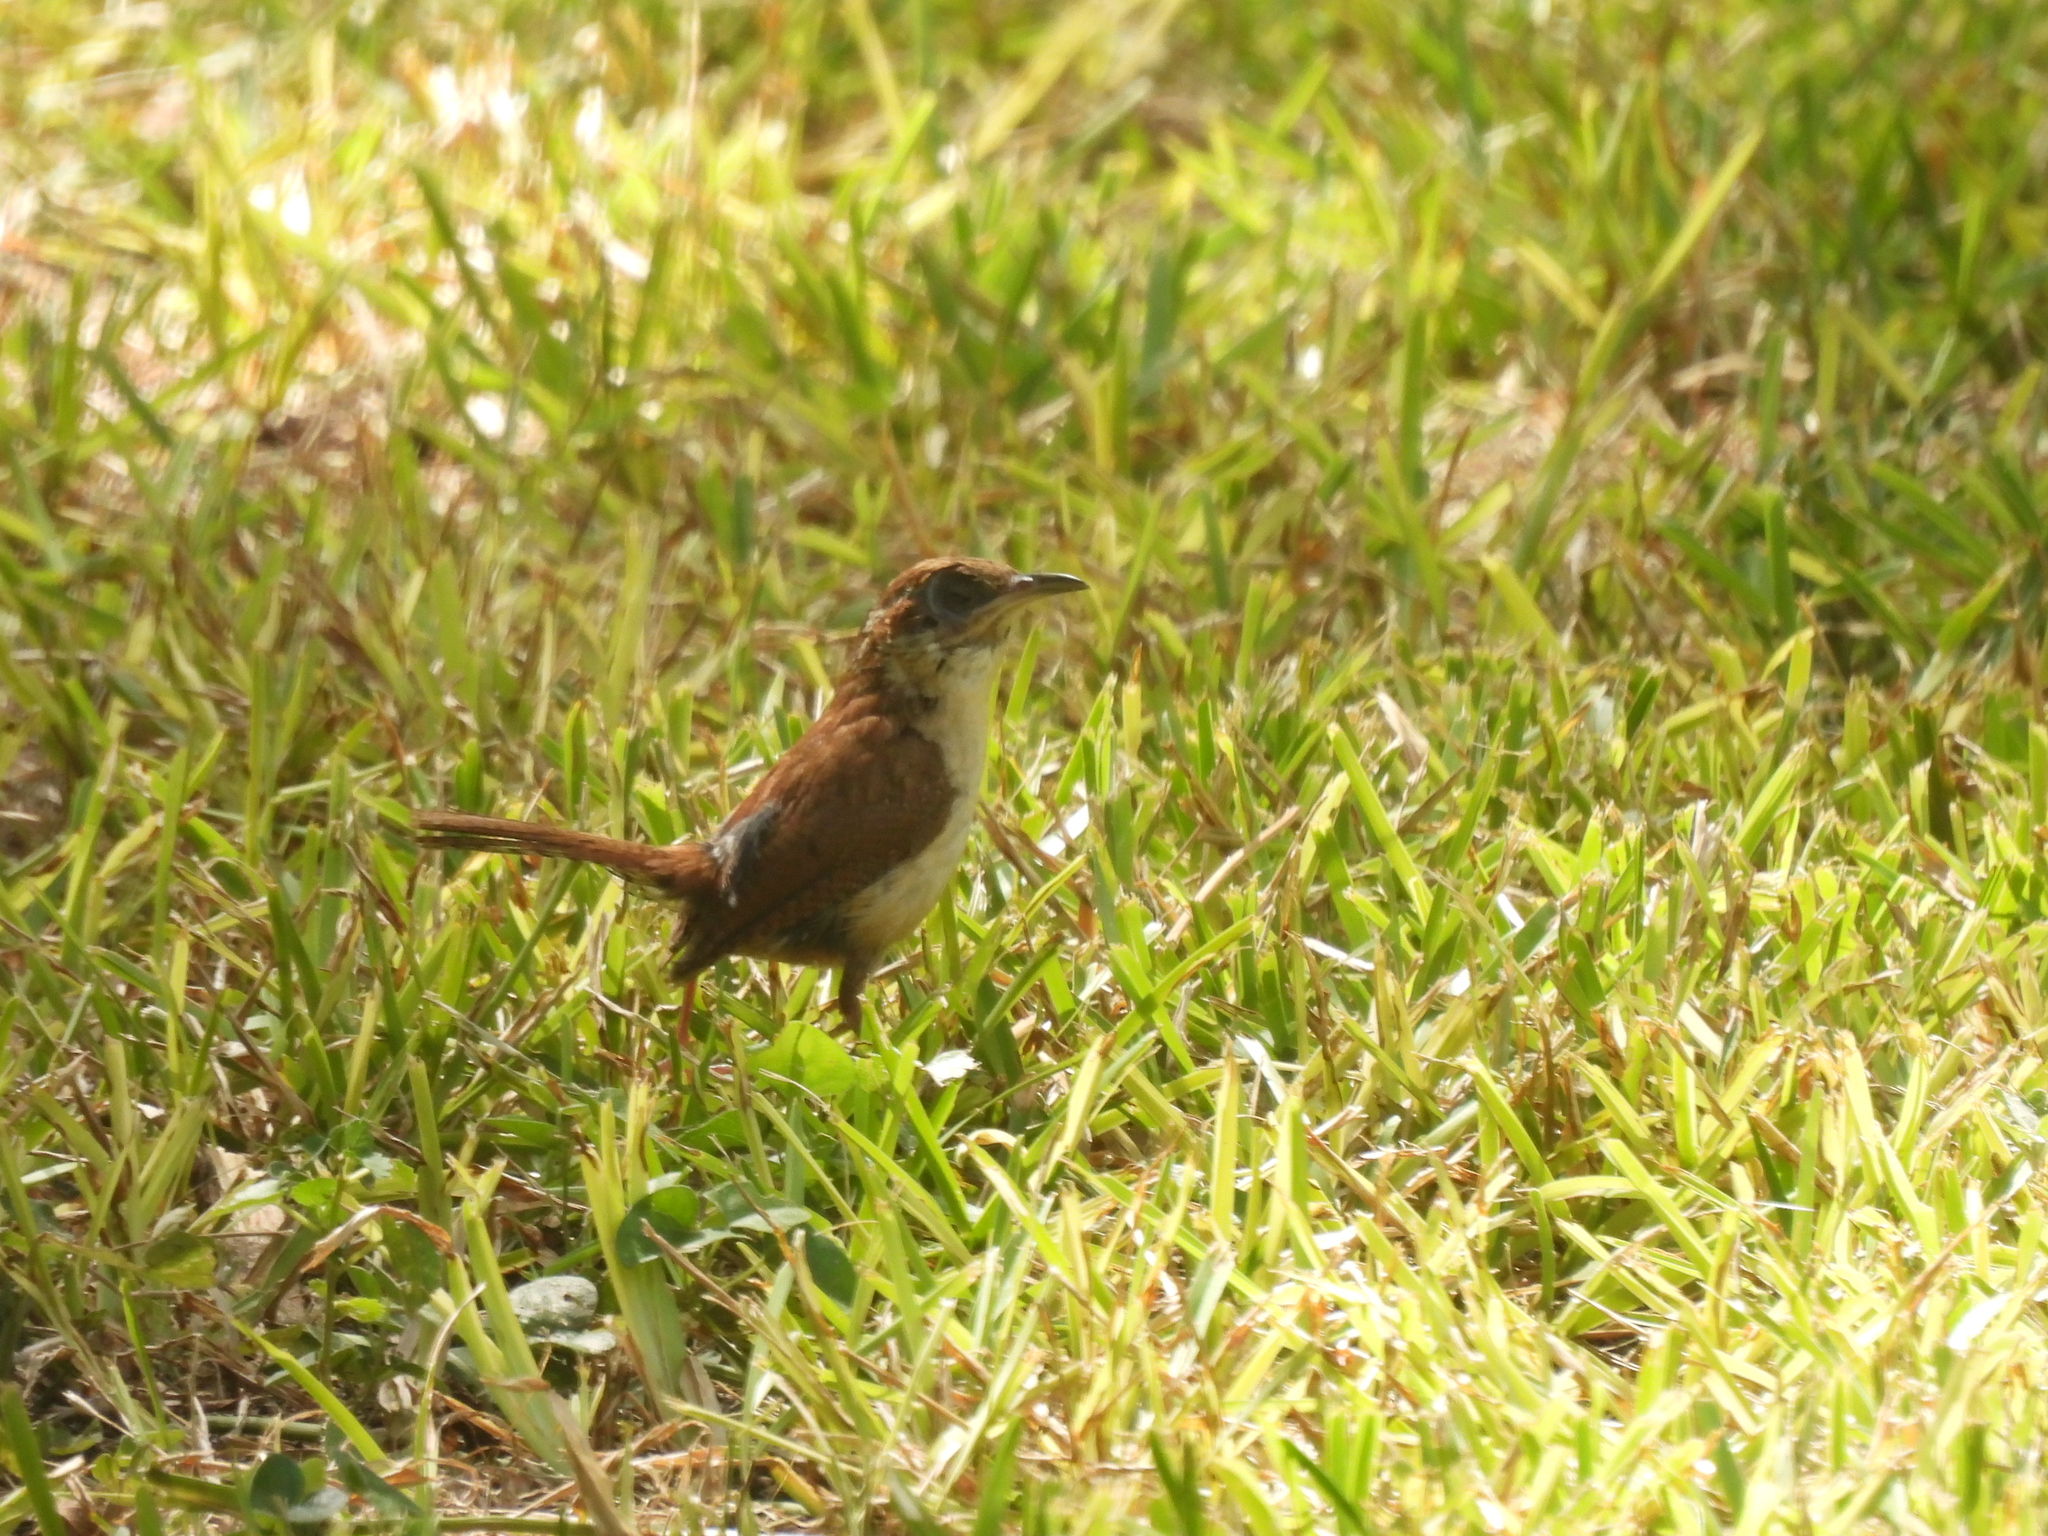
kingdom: Animalia
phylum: Chordata
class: Aves
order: Passeriformes
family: Troglodytidae
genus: Thryothorus
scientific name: Thryothorus ludovicianus
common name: Carolina wren
